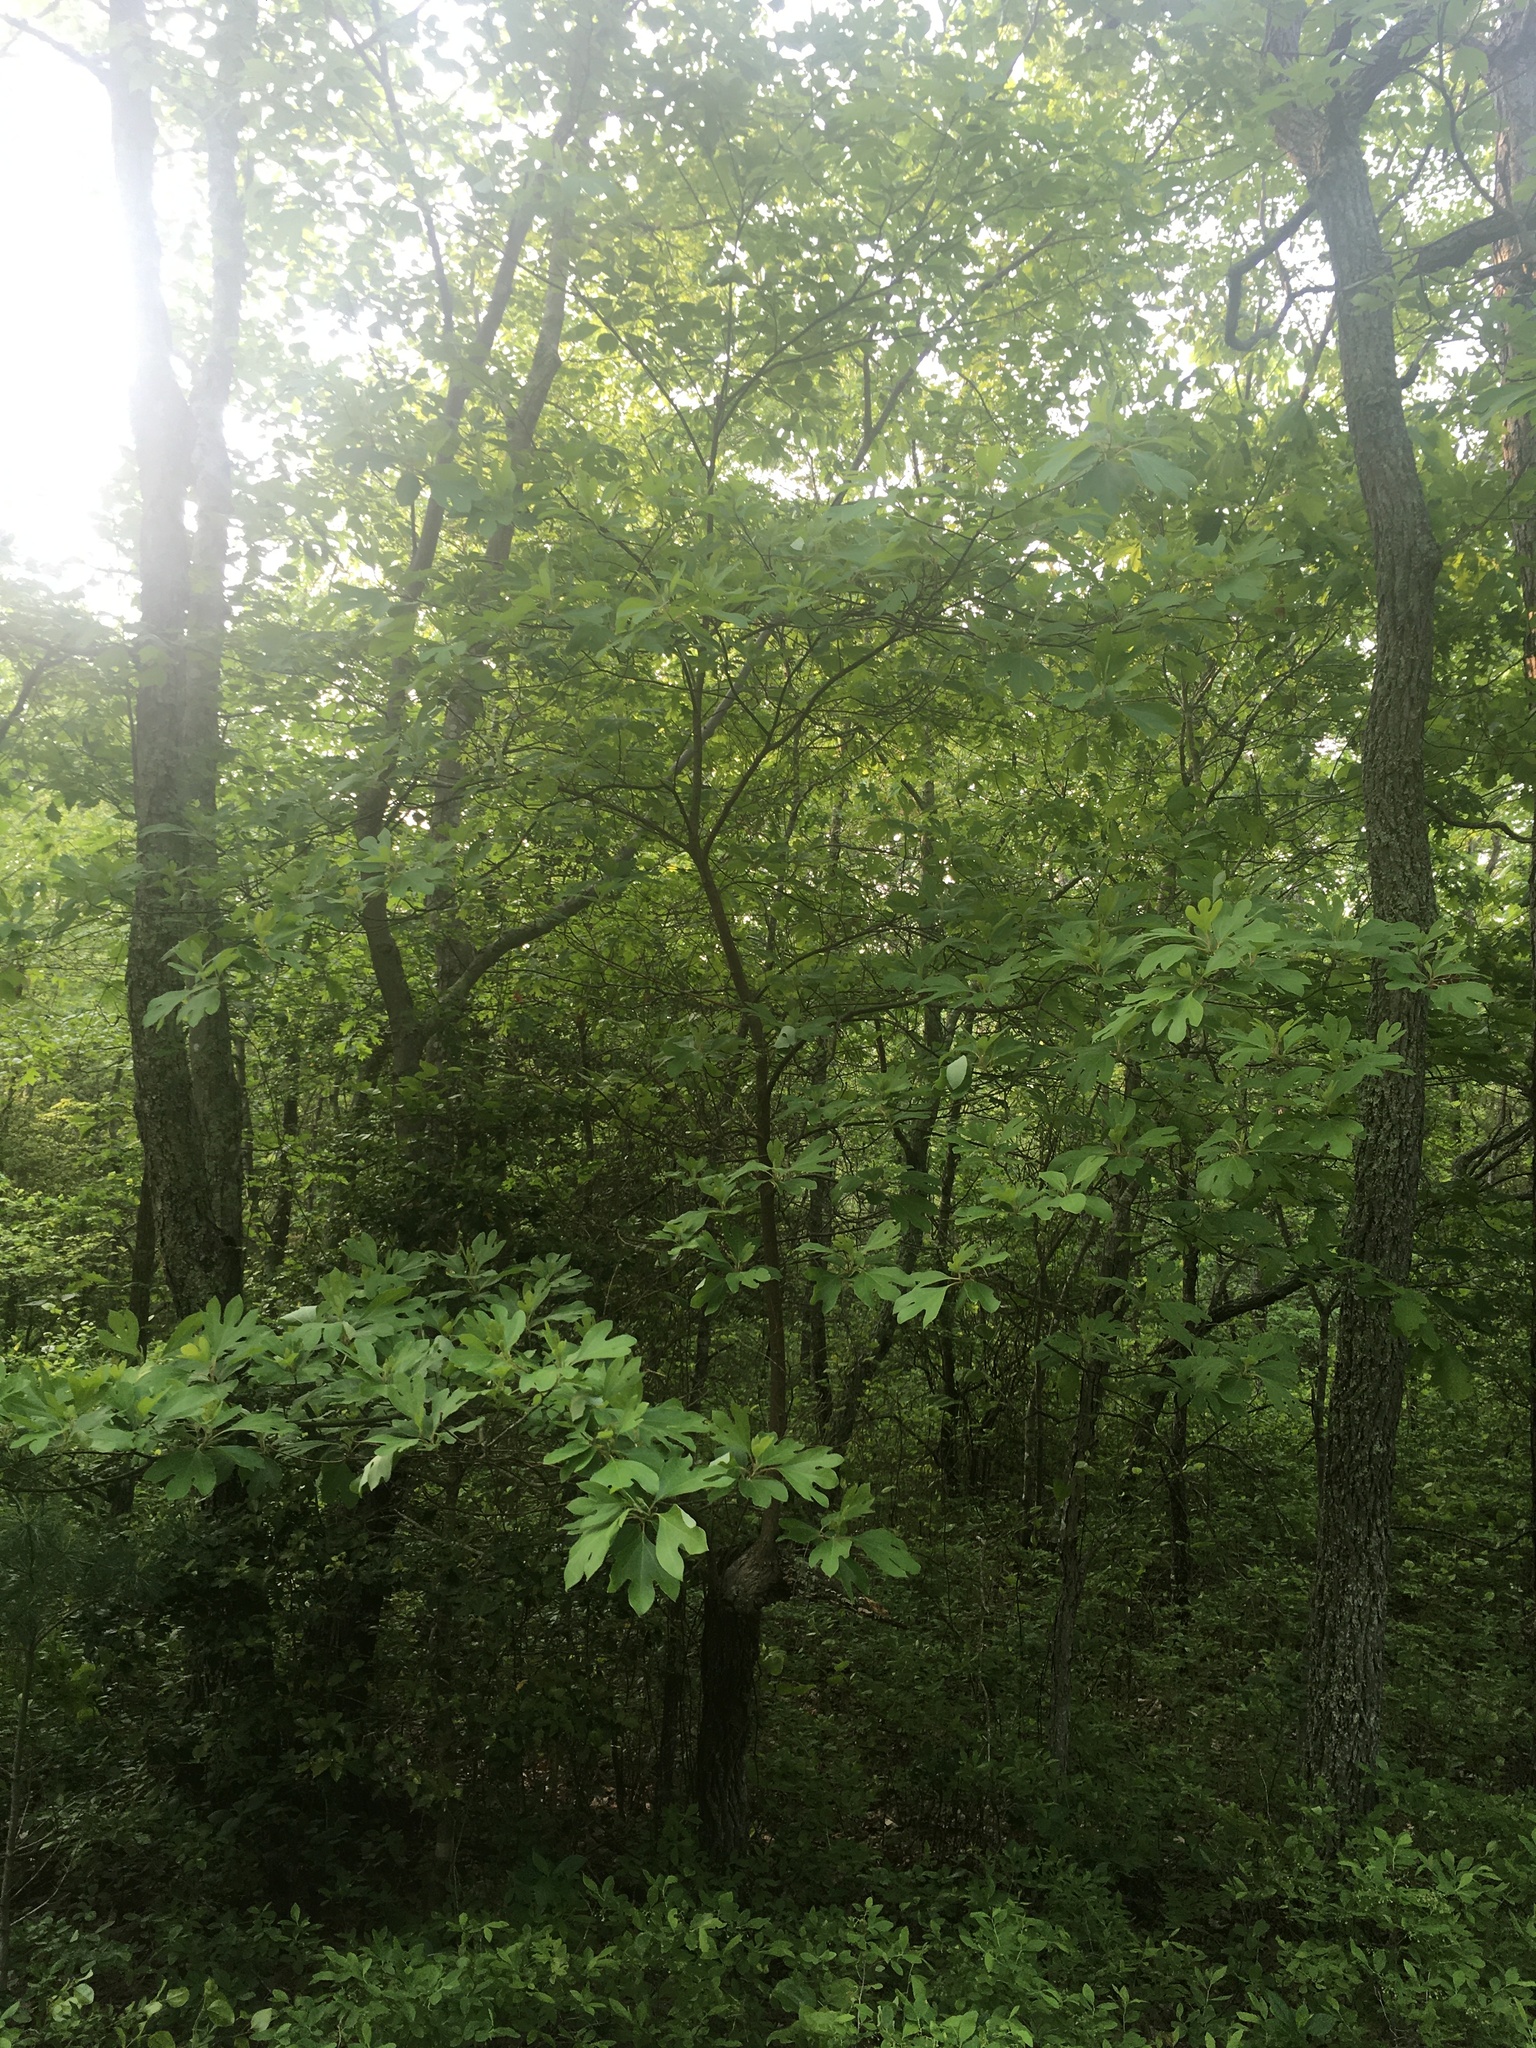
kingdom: Plantae
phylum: Tracheophyta
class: Magnoliopsida
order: Laurales
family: Lauraceae
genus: Sassafras
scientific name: Sassafras albidum
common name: Sassafras
